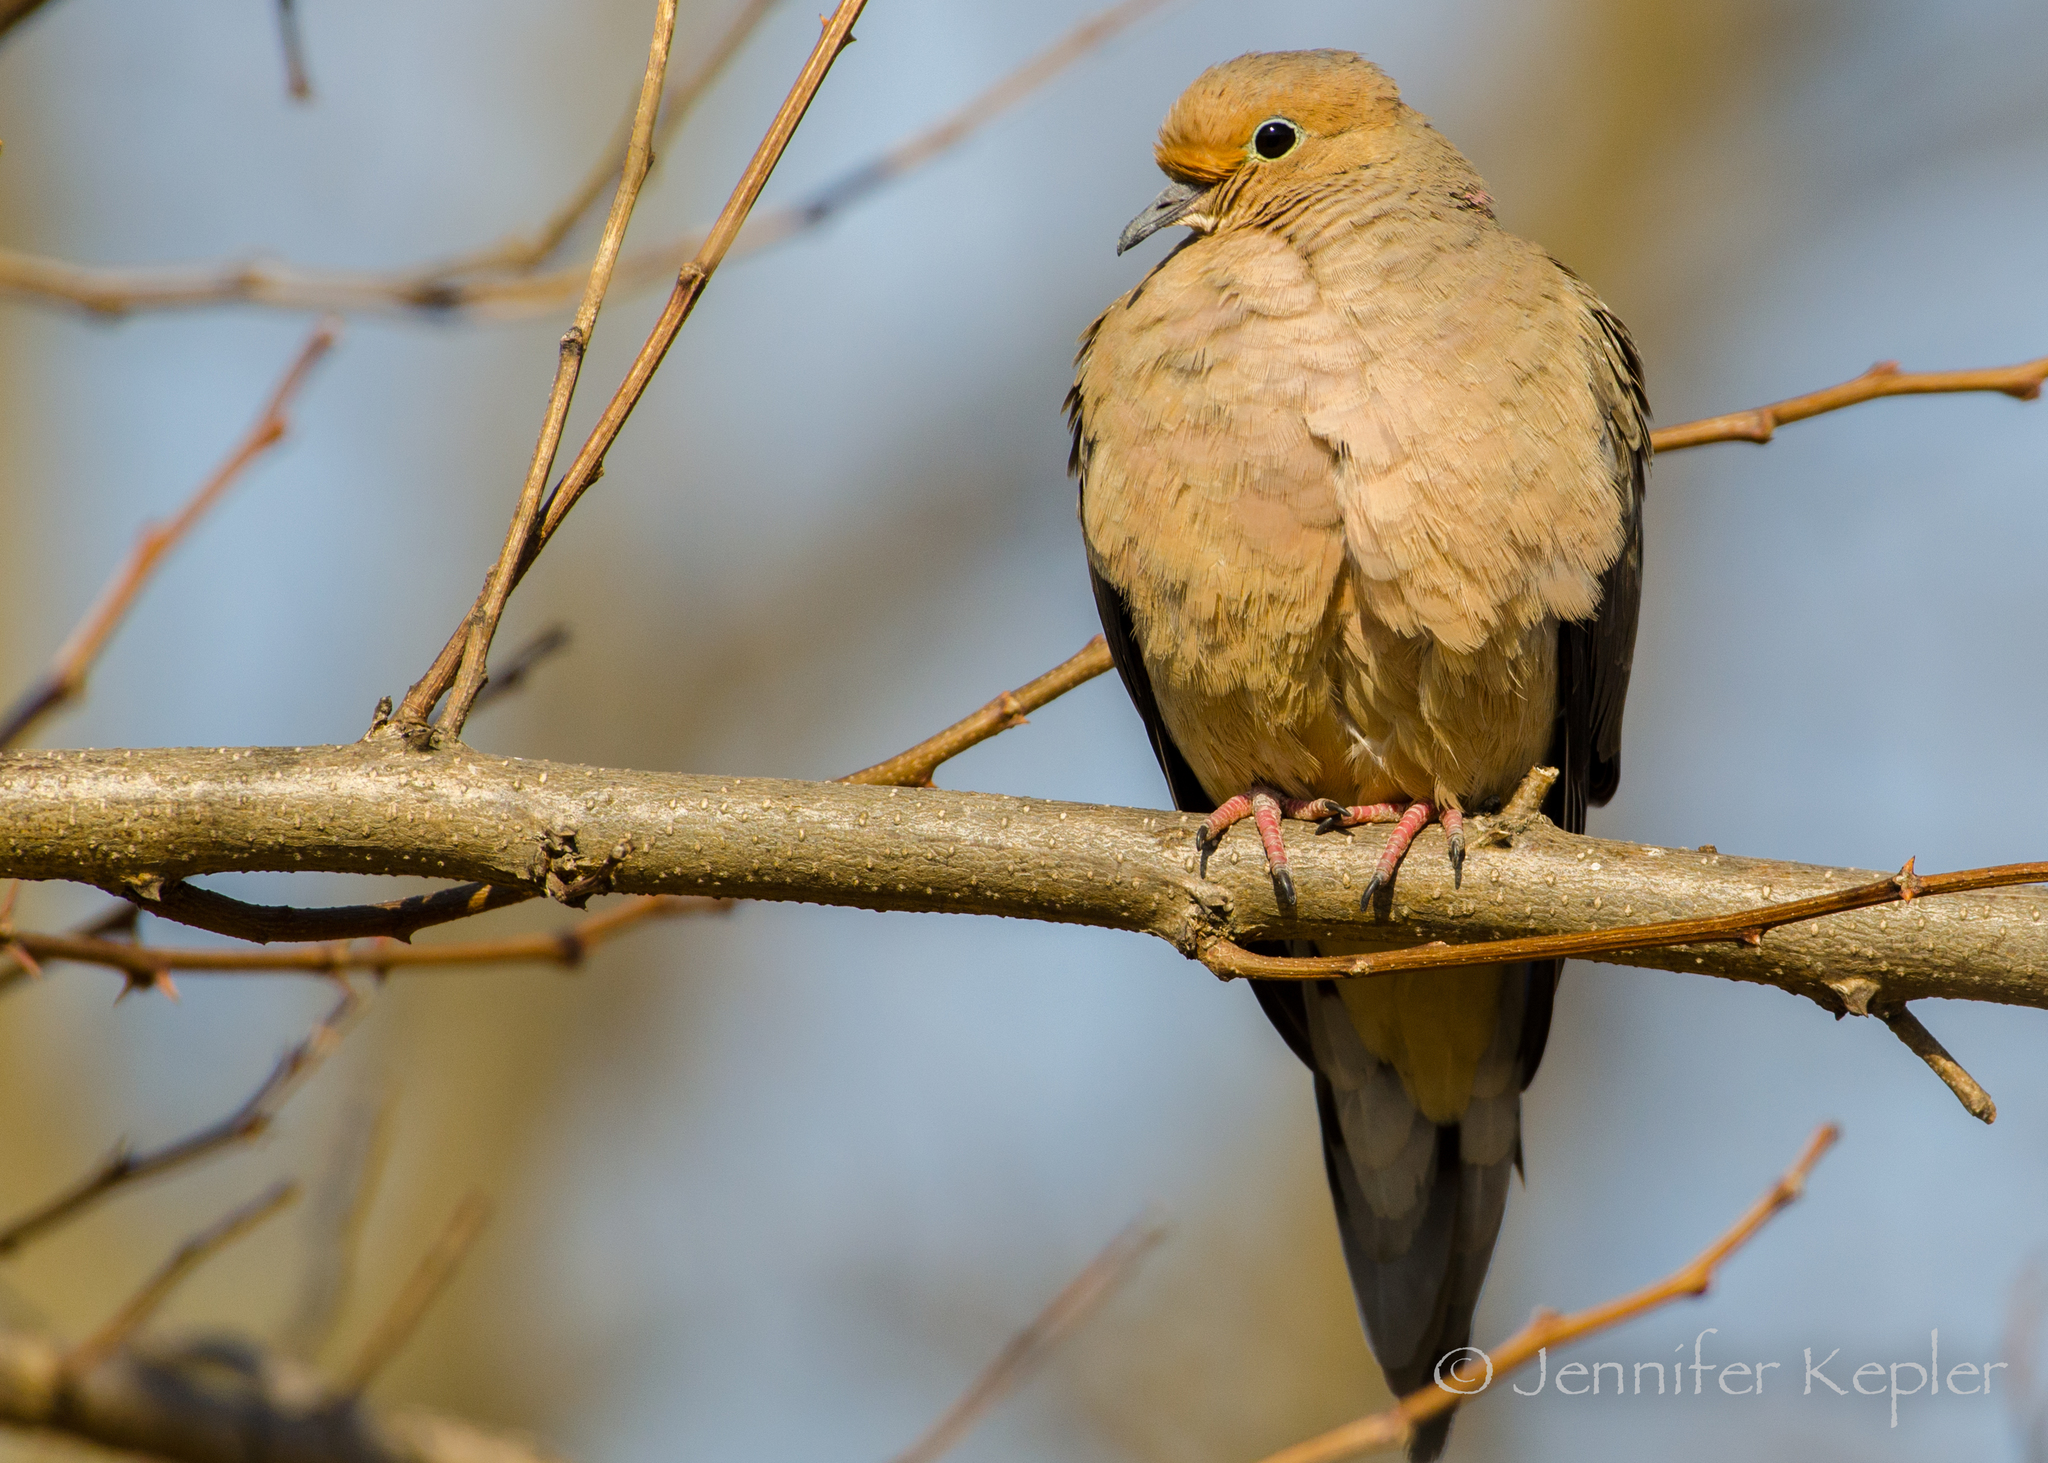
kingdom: Animalia
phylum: Chordata
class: Aves
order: Columbiformes
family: Columbidae
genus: Zenaida
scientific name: Zenaida macroura
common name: Mourning dove
